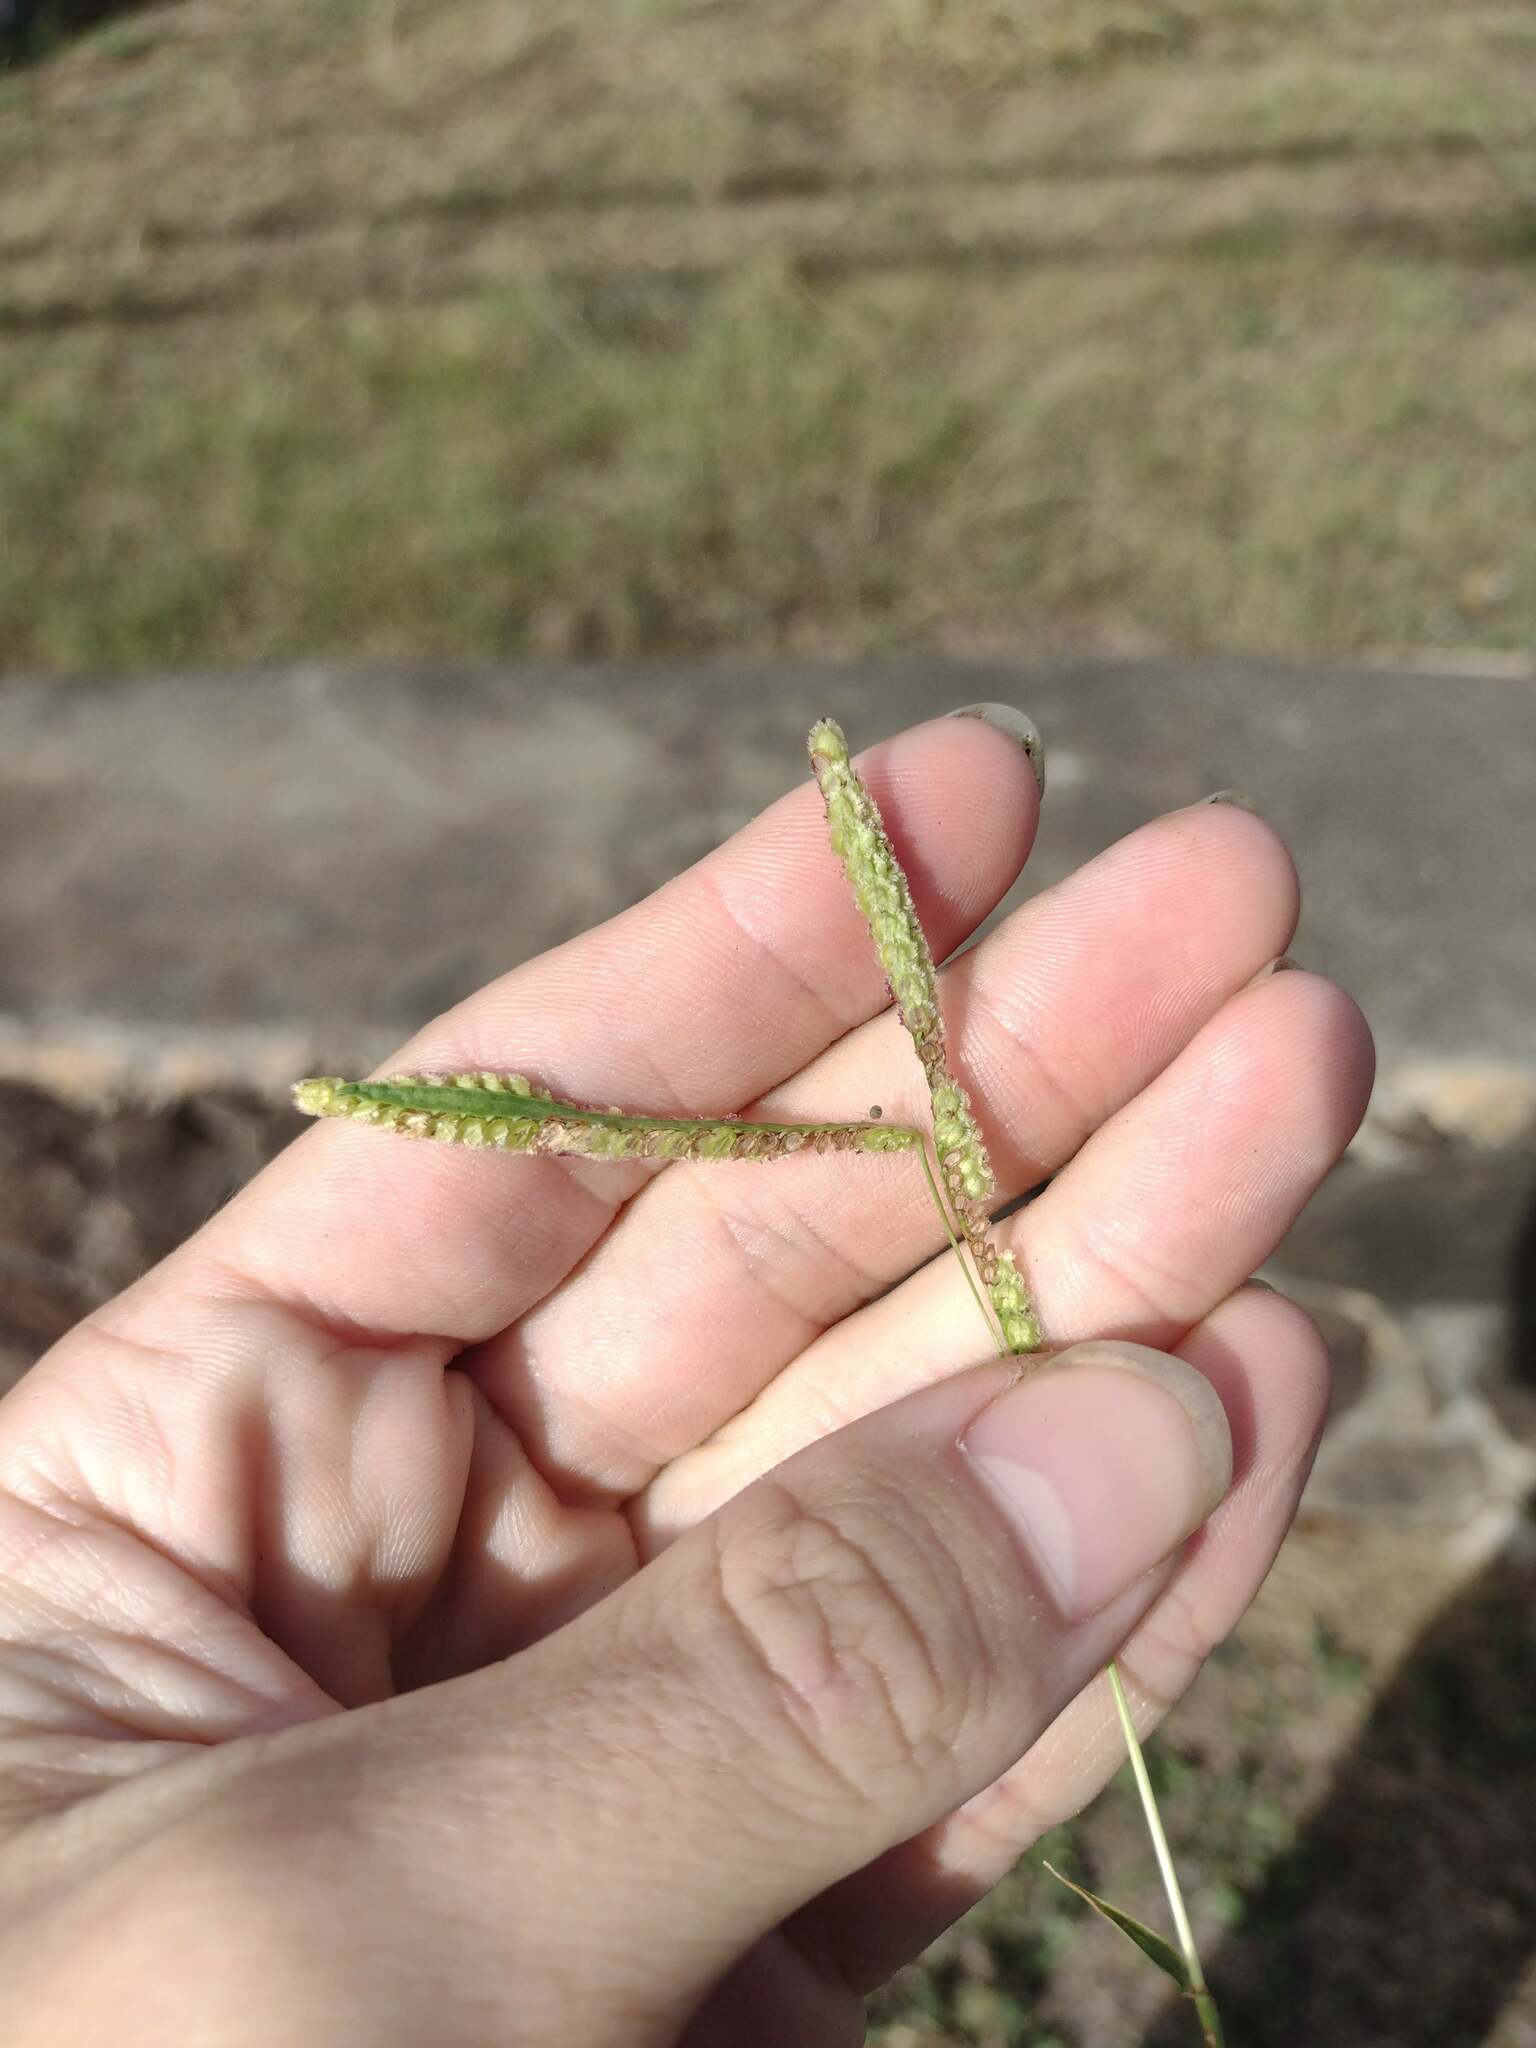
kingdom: Plantae
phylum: Tracheophyta
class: Liliopsida
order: Poales
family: Poaceae
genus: Paspalum
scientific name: Paspalum fimbriatum
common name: Panama crowngrass
